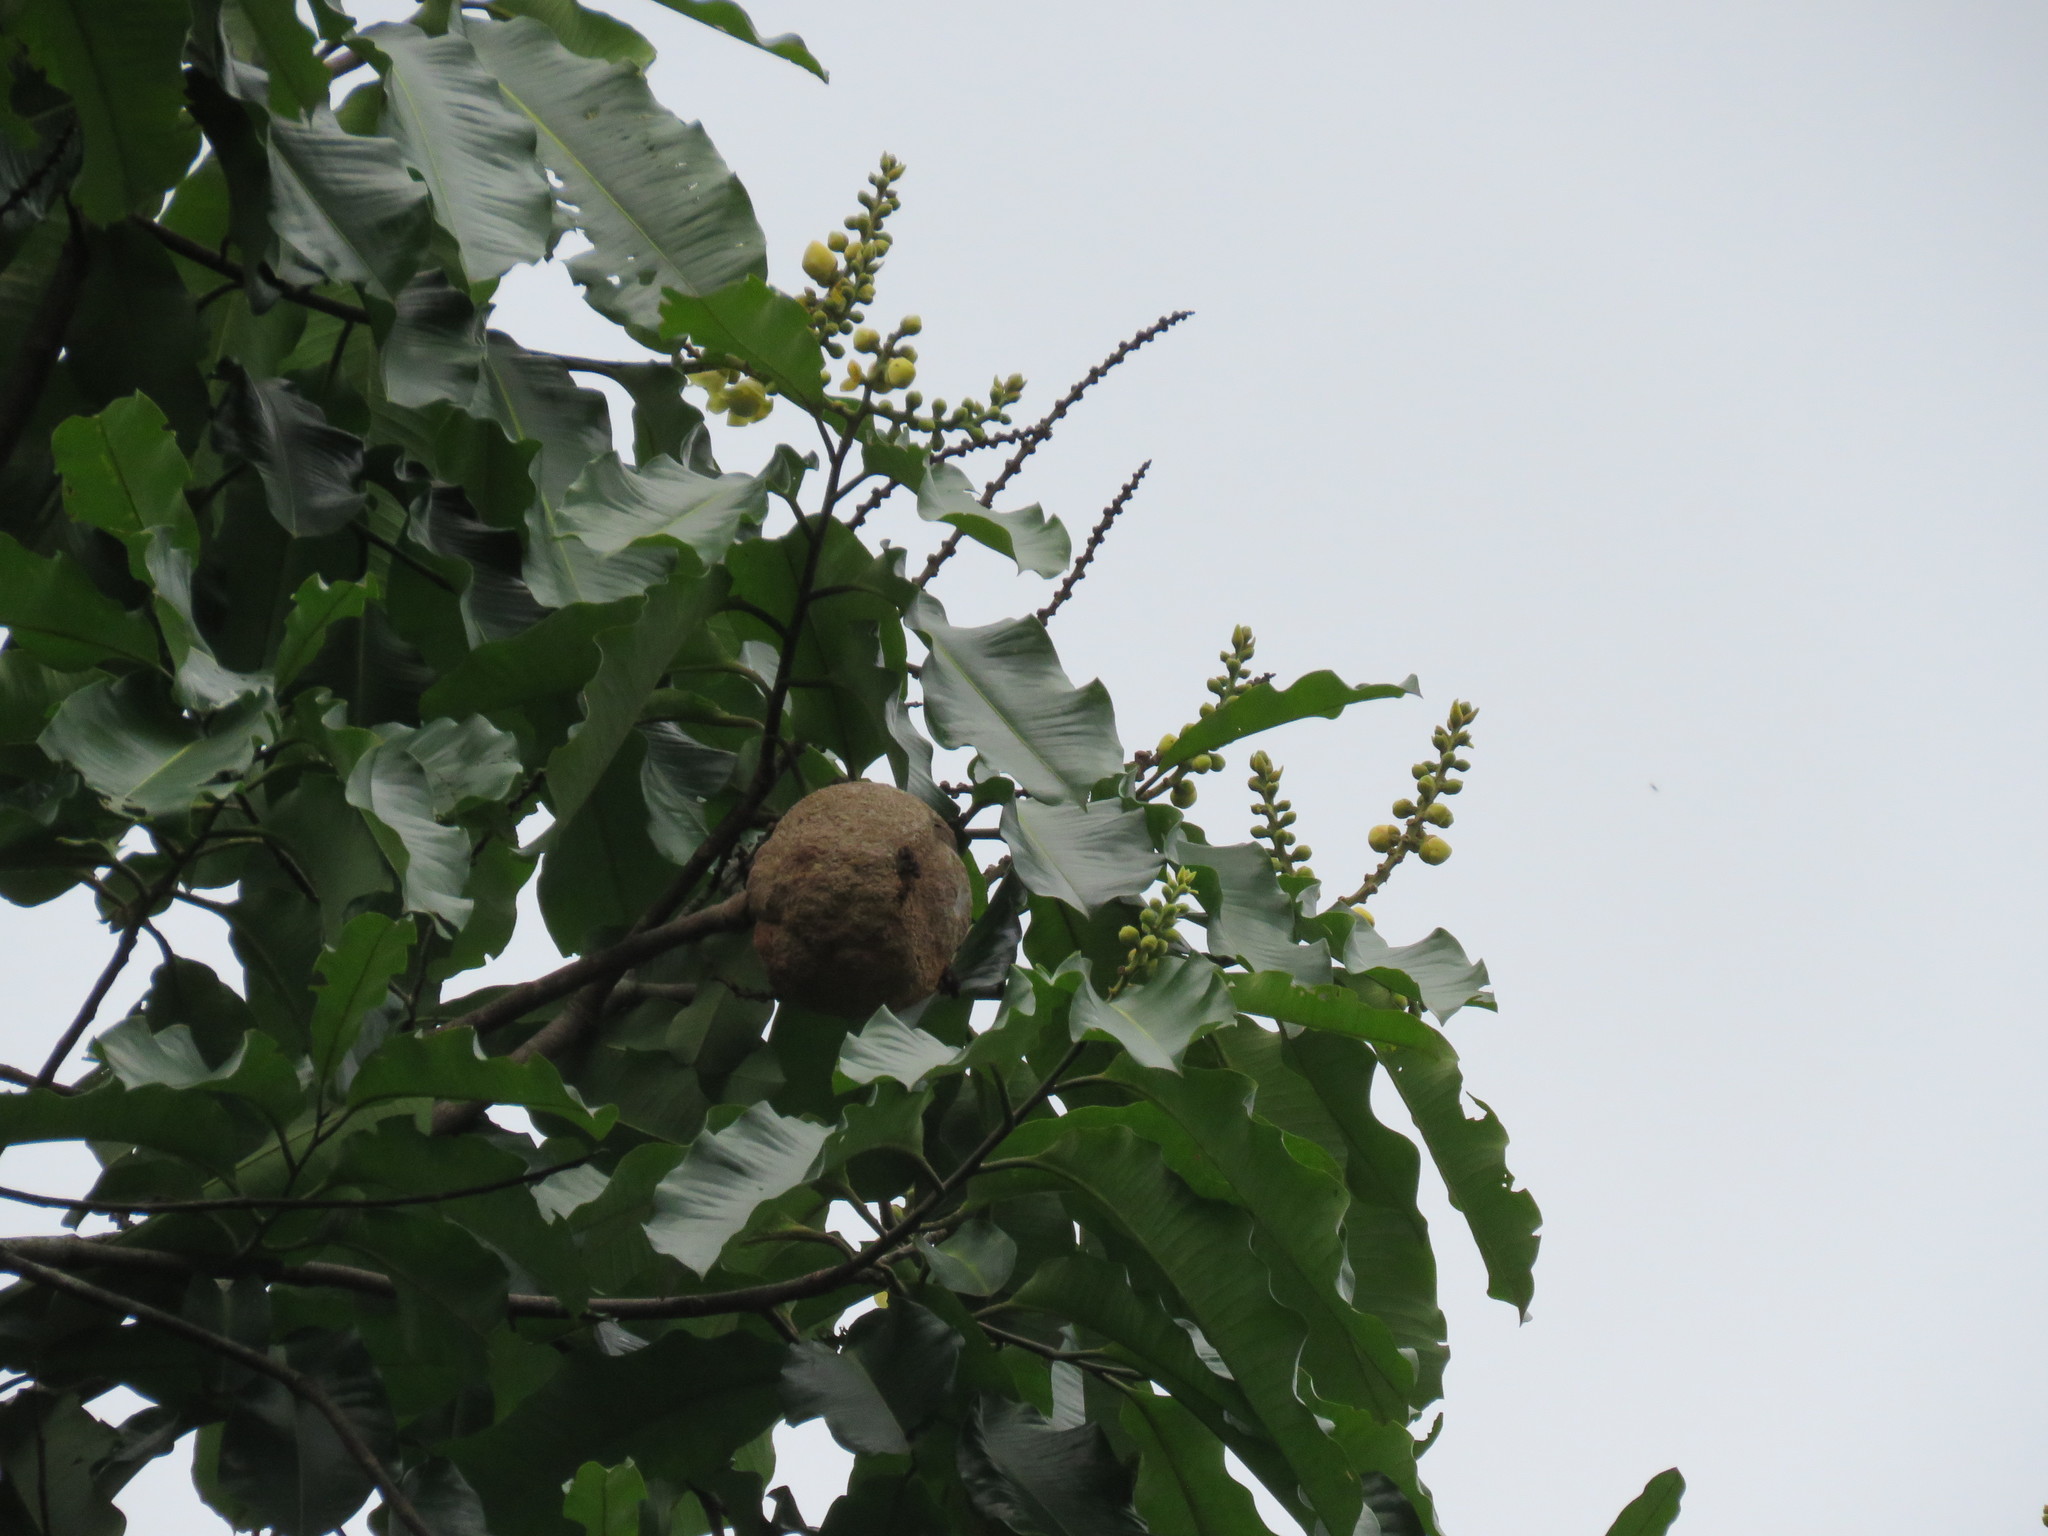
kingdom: Plantae
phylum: Tracheophyta
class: Magnoliopsida
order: Ericales
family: Lecythidaceae
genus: Bertholletia
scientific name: Bertholletia excelsa
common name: Brazil-nut tree
